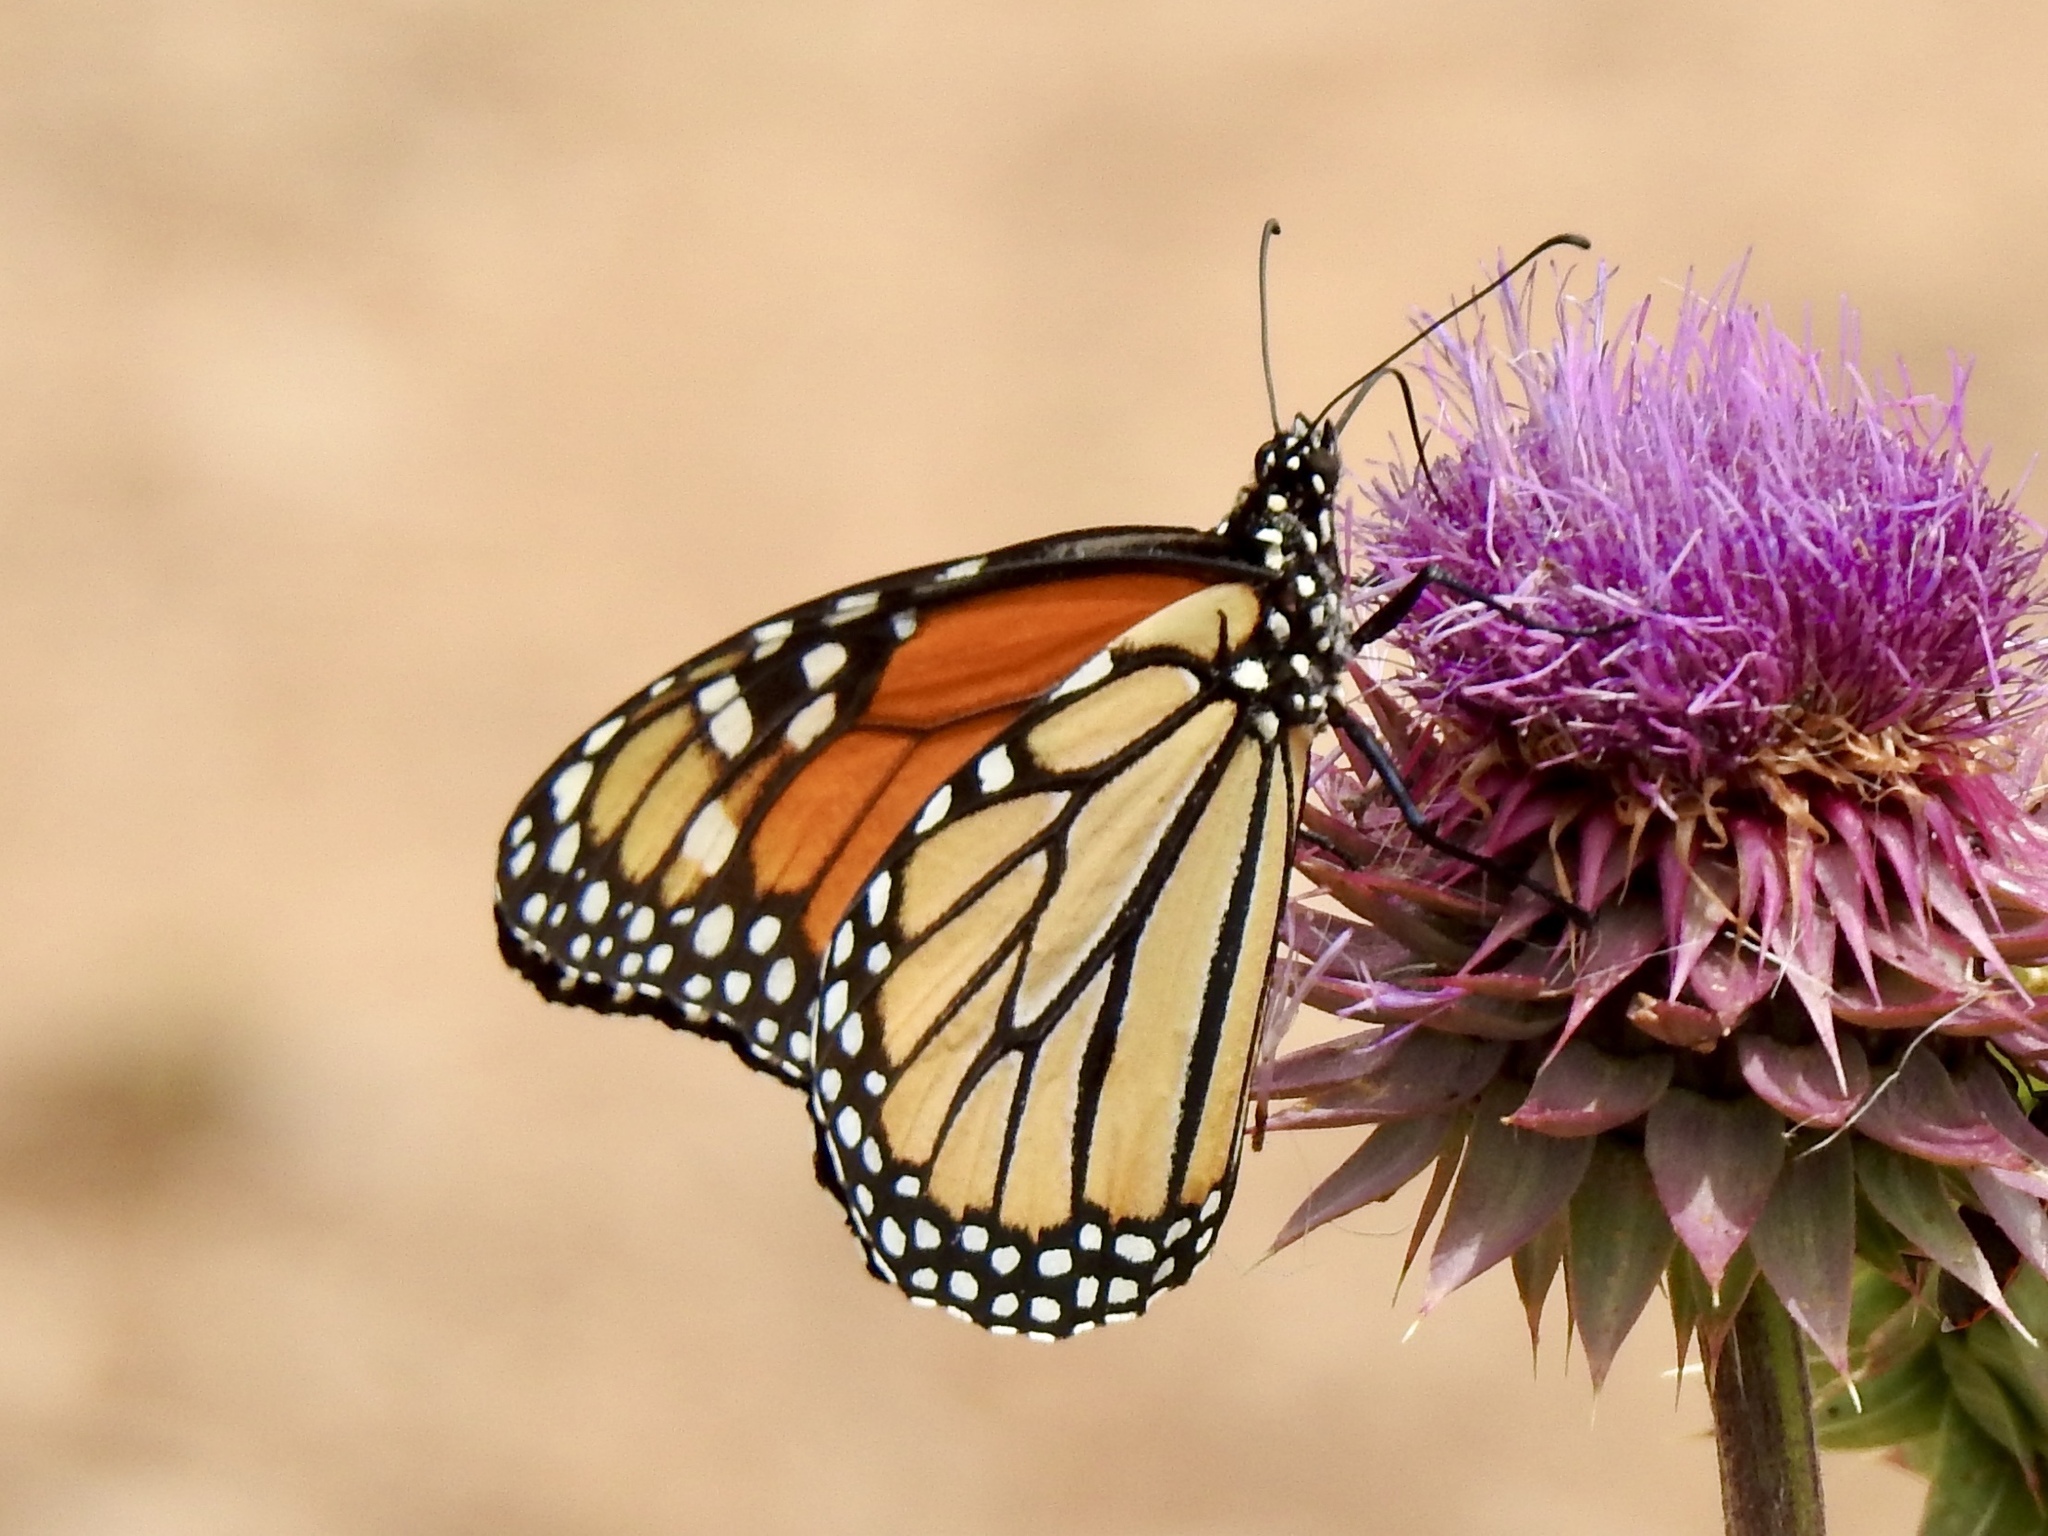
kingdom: Animalia
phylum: Arthropoda
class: Insecta
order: Lepidoptera
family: Nymphalidae
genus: Danaus
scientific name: Danaus plexippus
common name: Monarch
